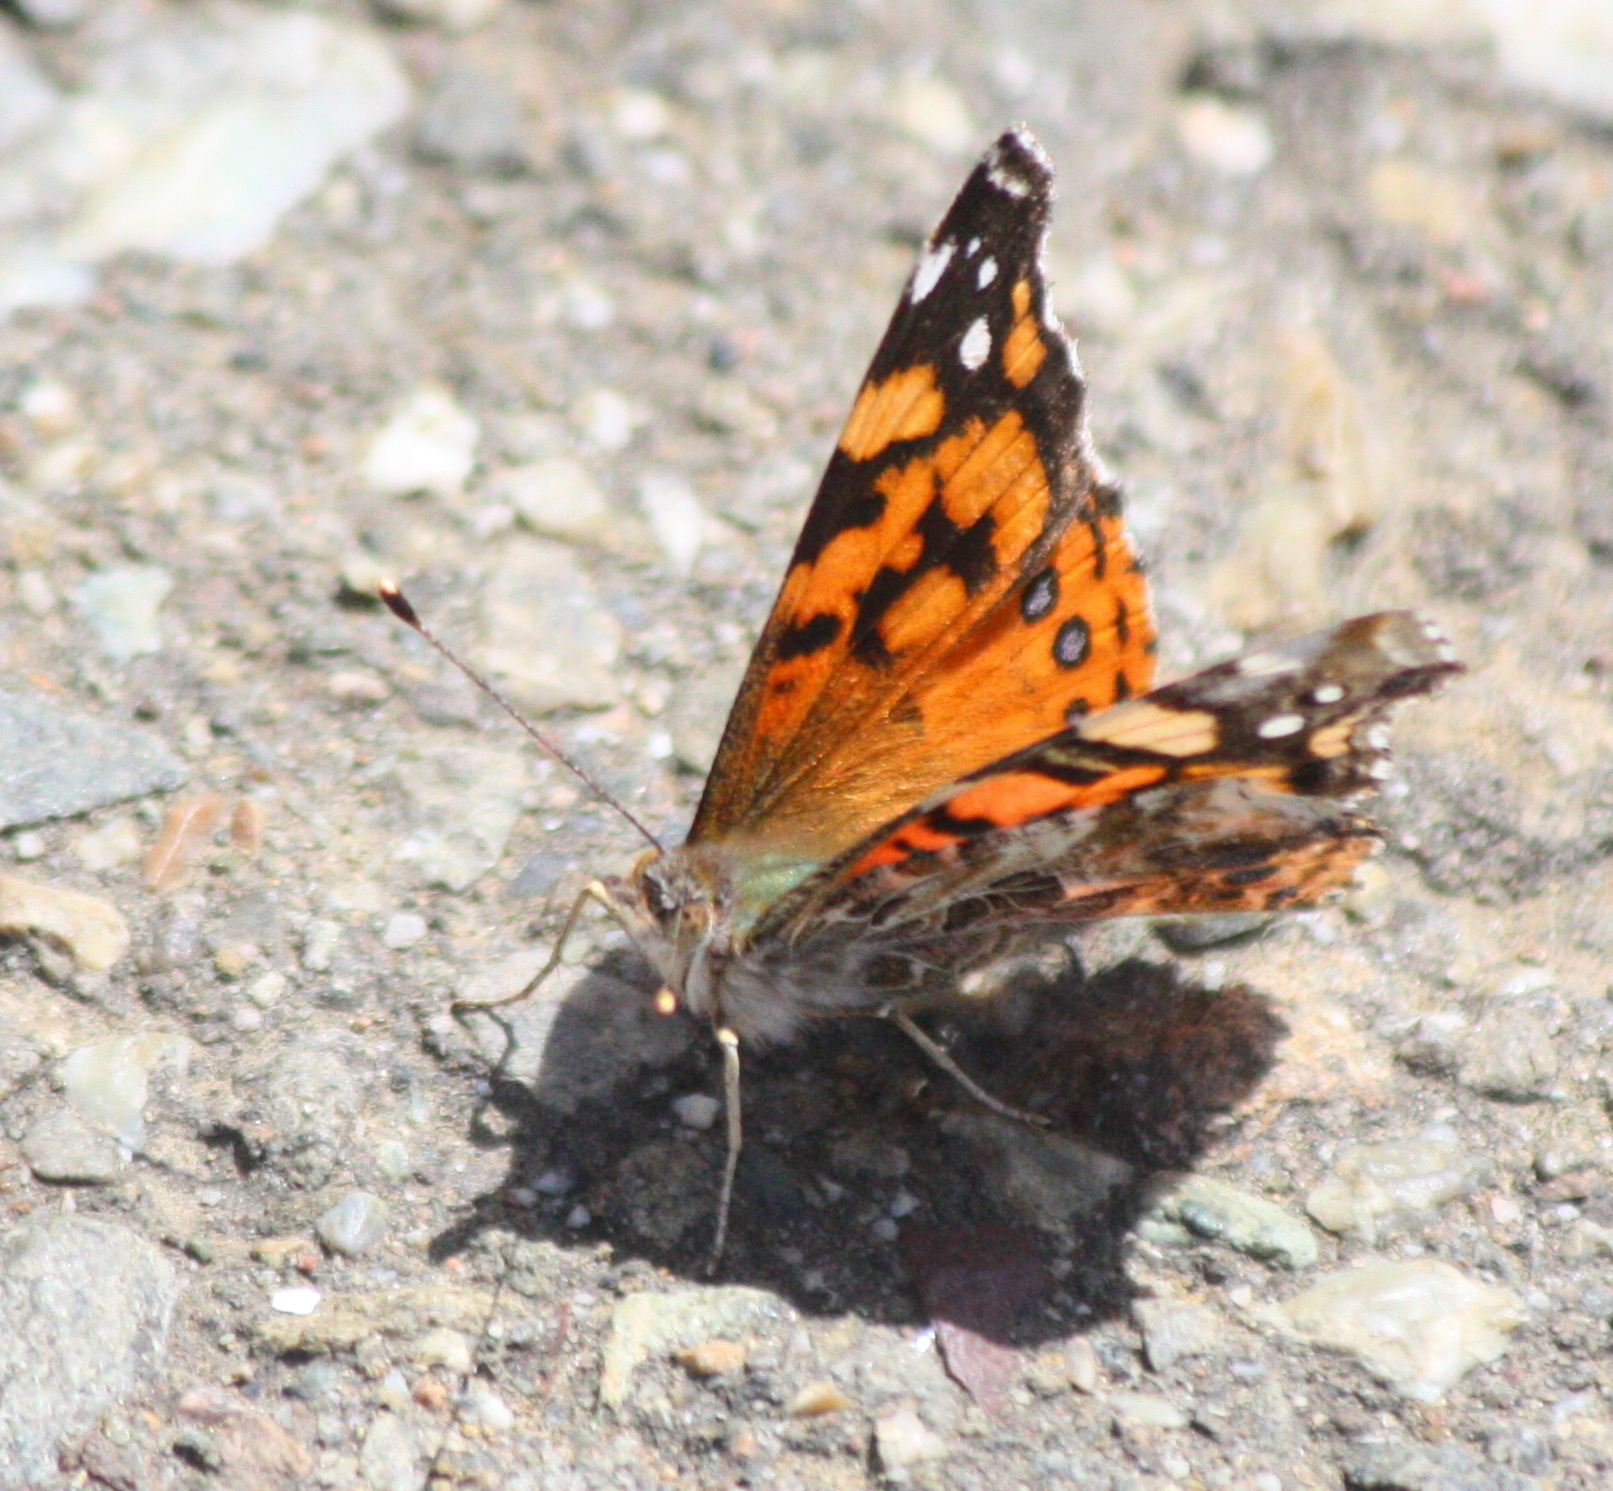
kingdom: Animalia
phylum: Arthropoda
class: Insecta
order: Lepidoptera
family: Nymphalidae
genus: Vanessa
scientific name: Vanessa annabella
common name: West coast lady
